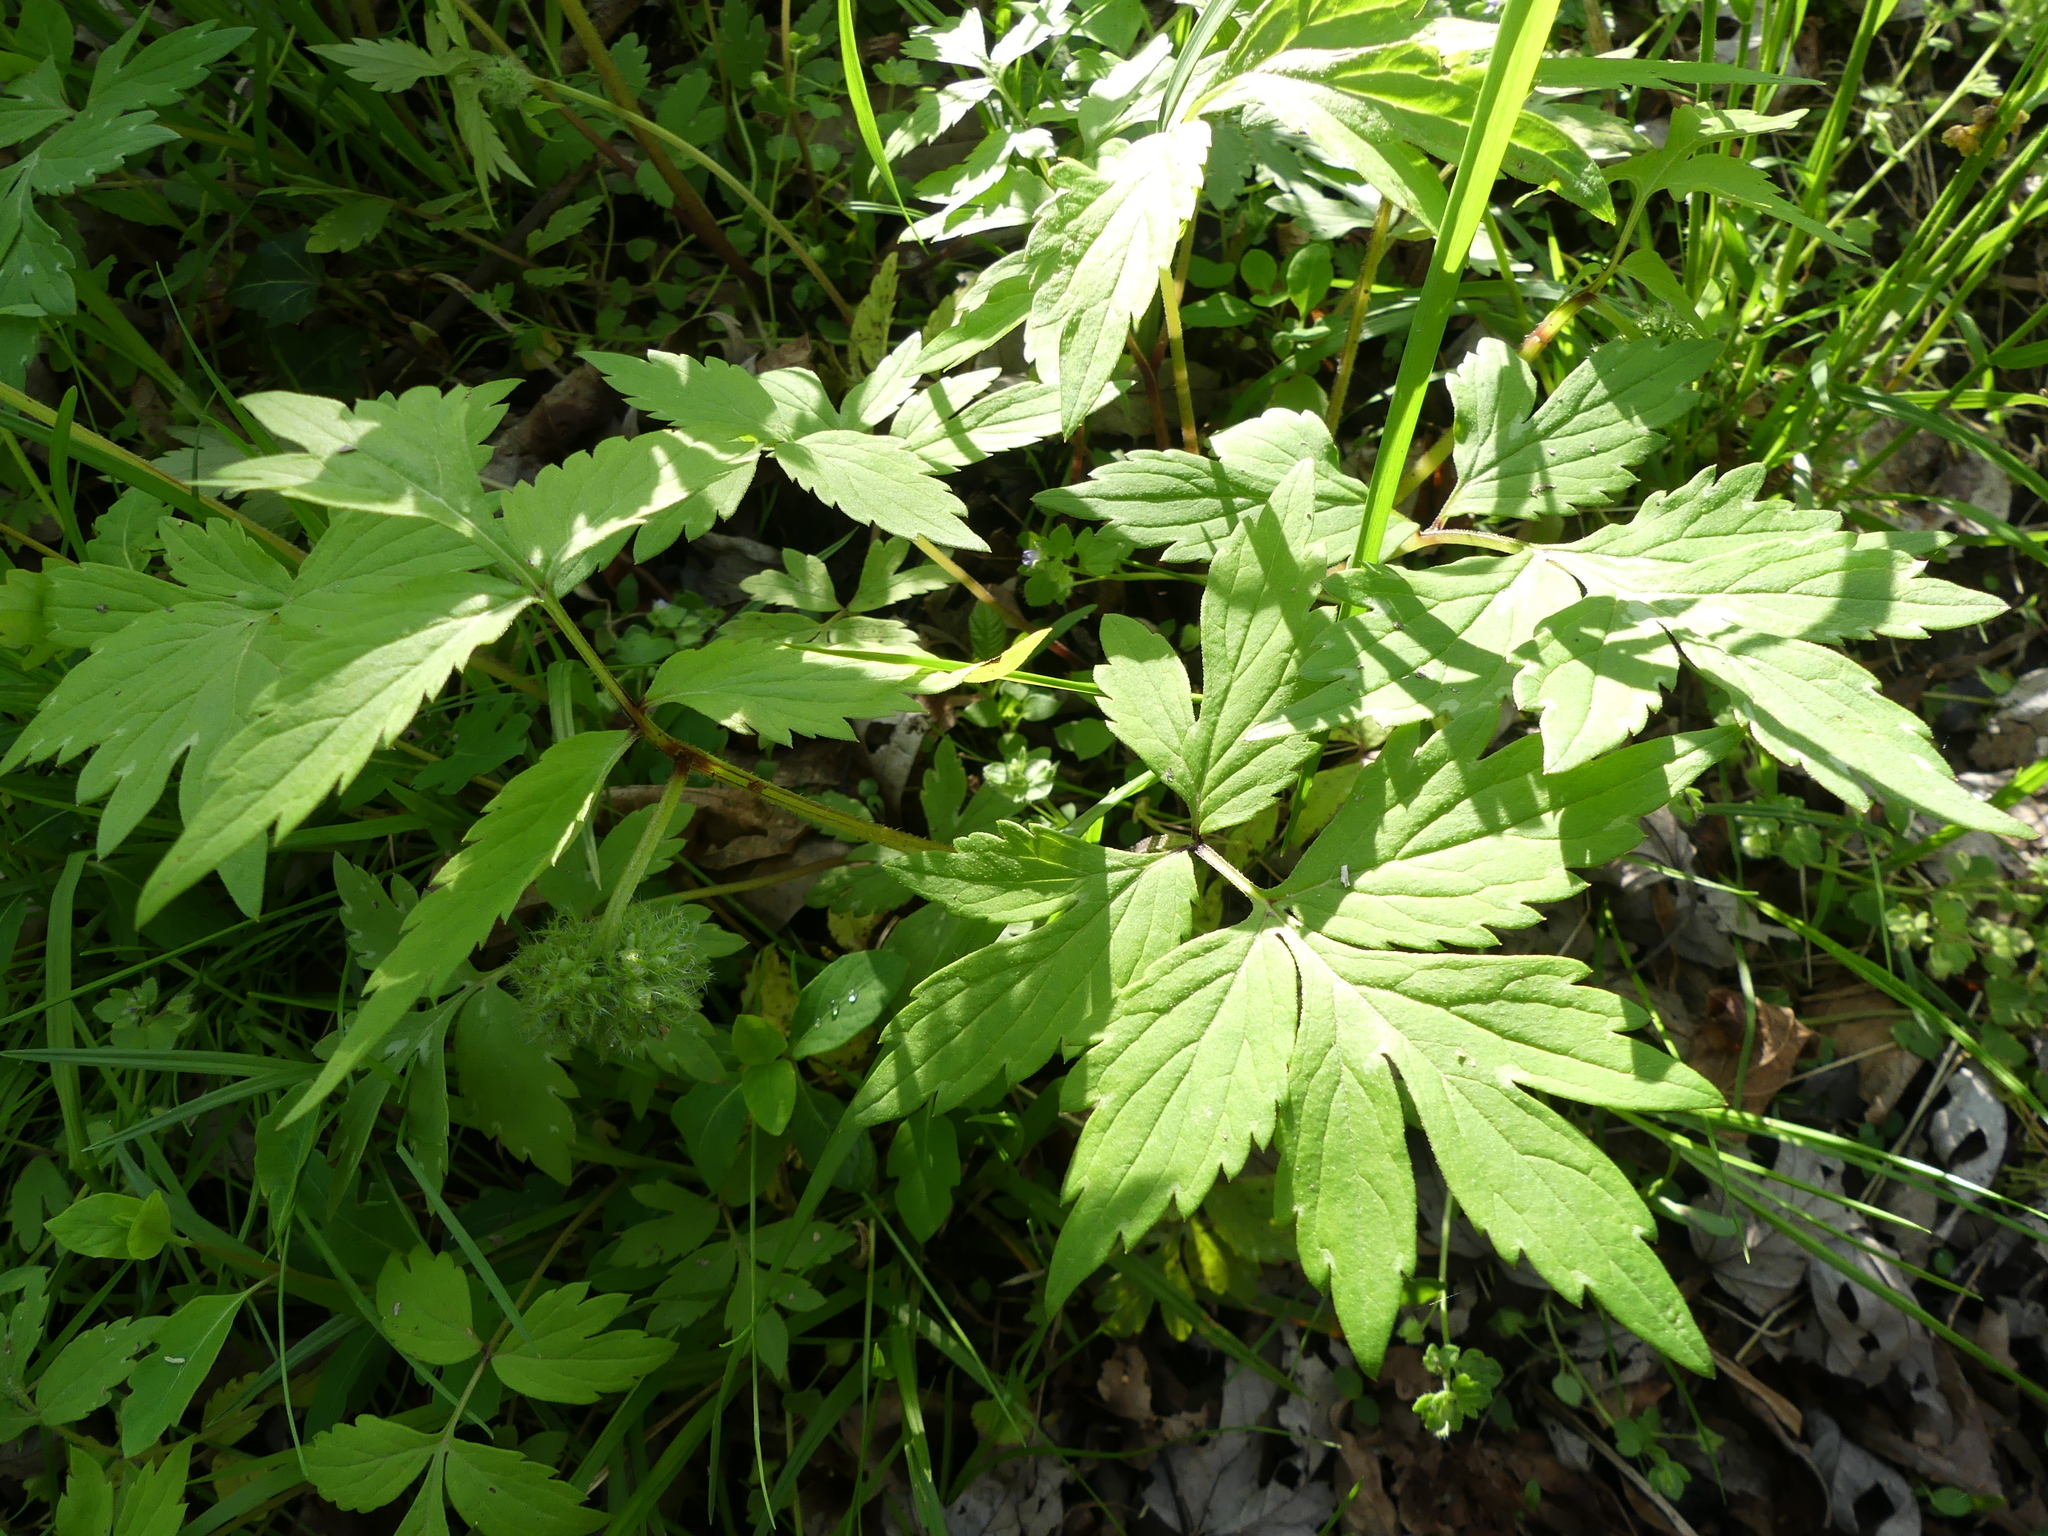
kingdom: Plantae
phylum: Tracheophyta
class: Magnoliopsida
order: Boraginales
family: Hydrophyllaceae
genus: Hydrophyllum
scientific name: Hydrophyllum virginianum
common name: Virginia waterleaf
